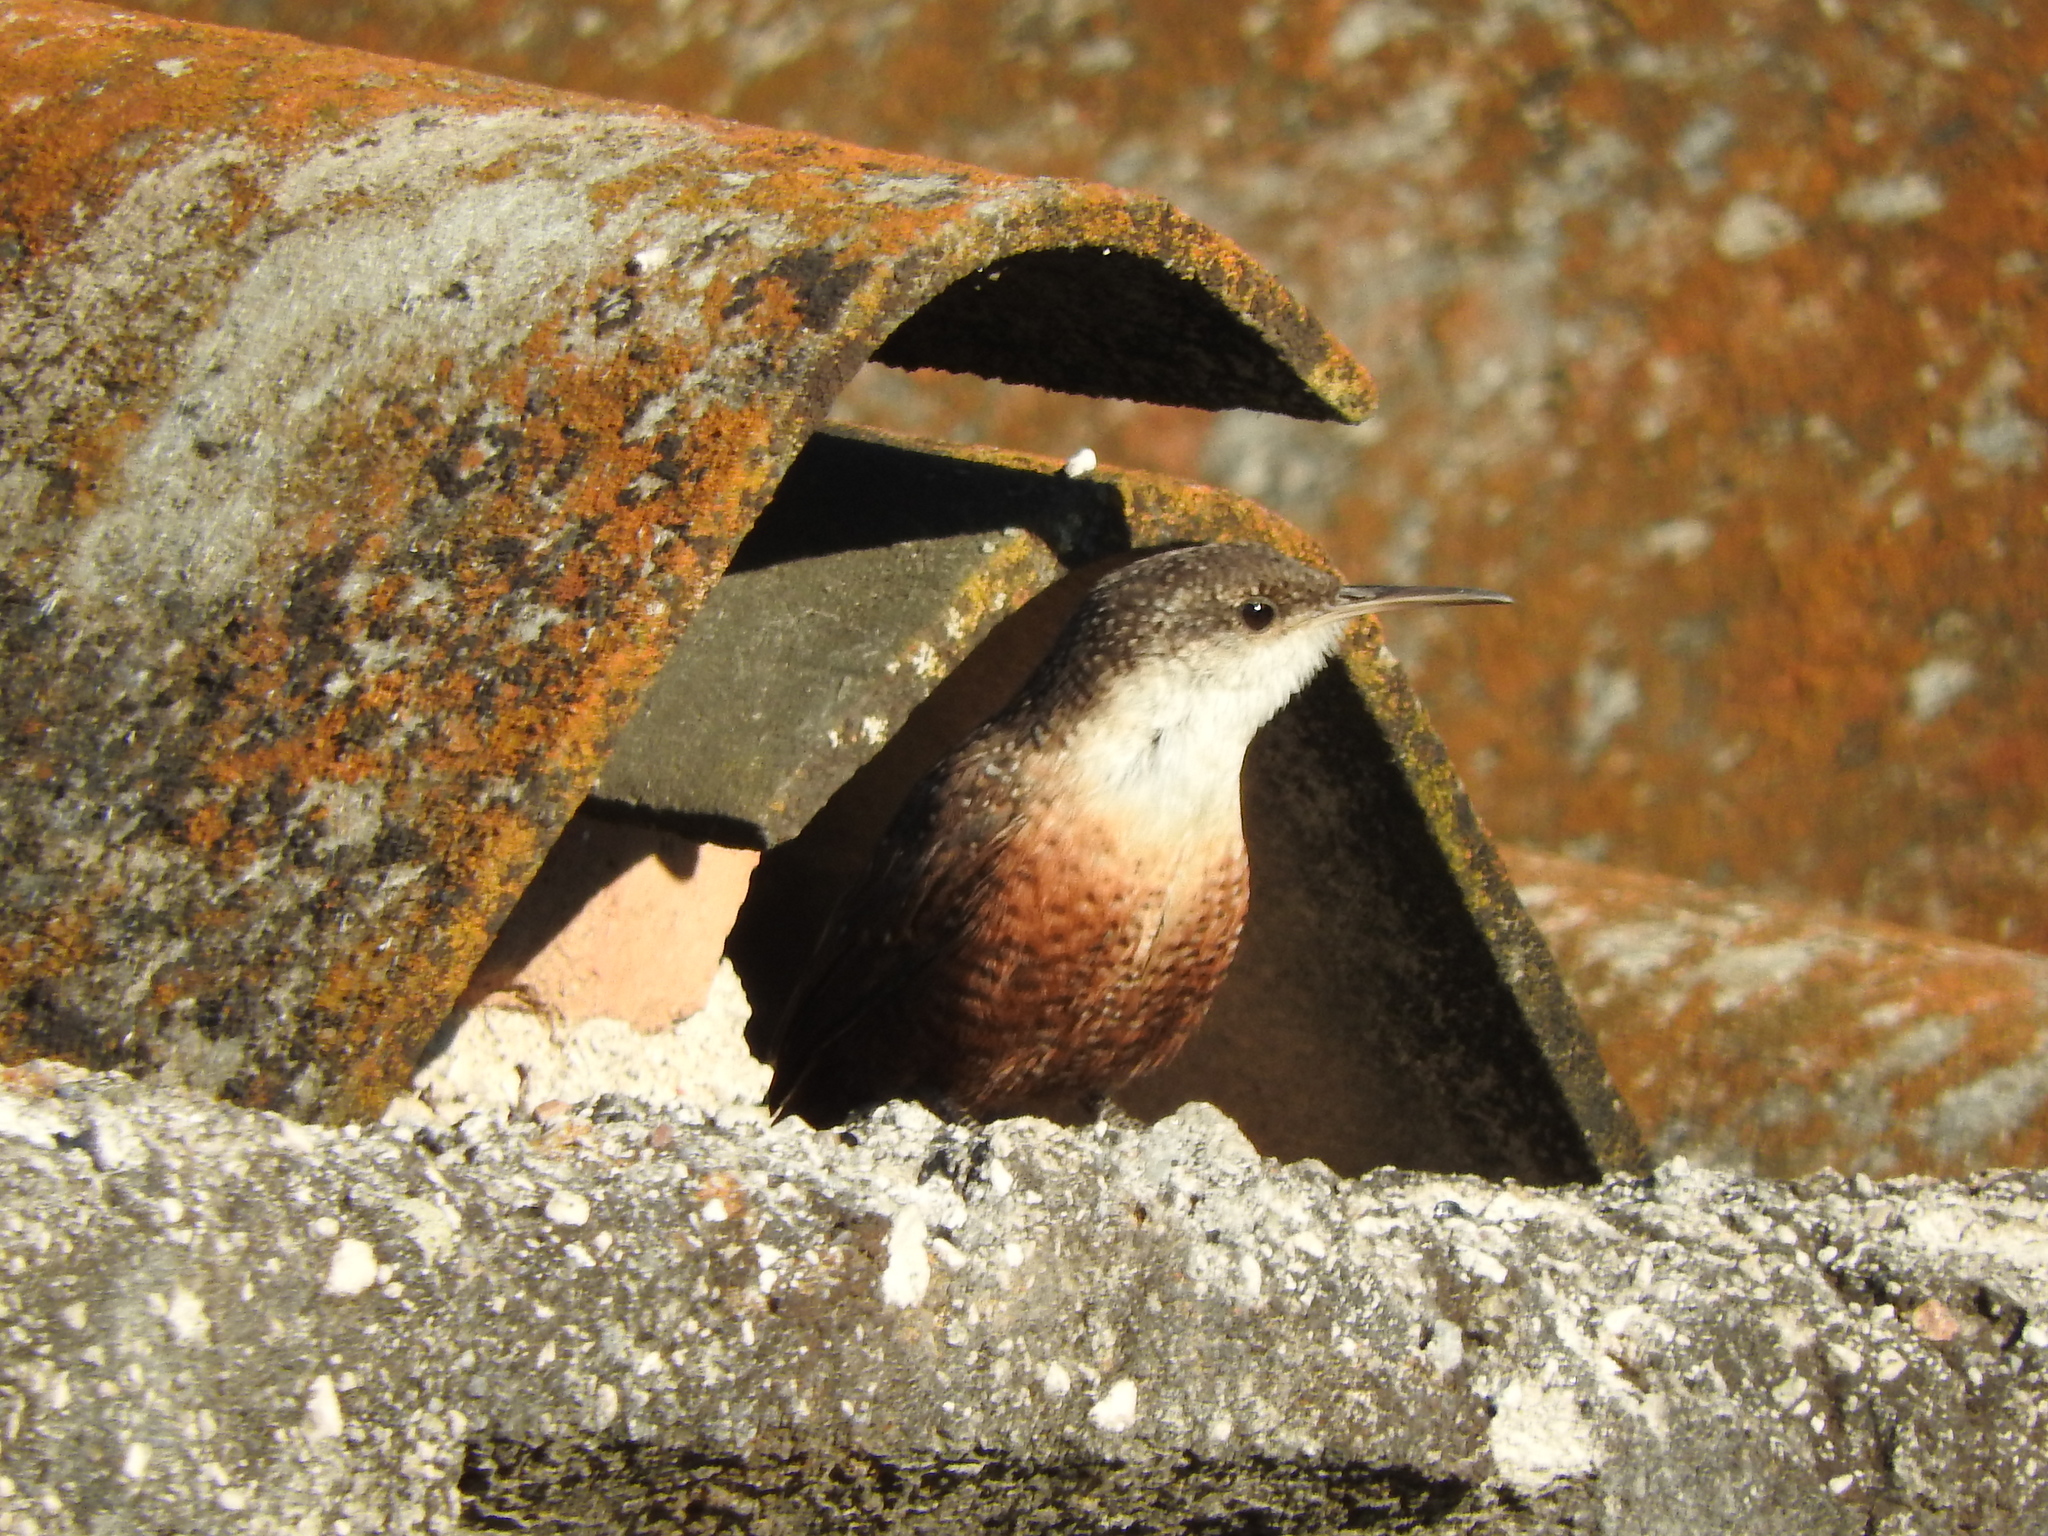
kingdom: Animalia
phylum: Chordata
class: Aves
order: Passeriformes
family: Troglodytidae
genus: Catherpes
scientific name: Catherpes mexicanus
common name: Canyon wren
